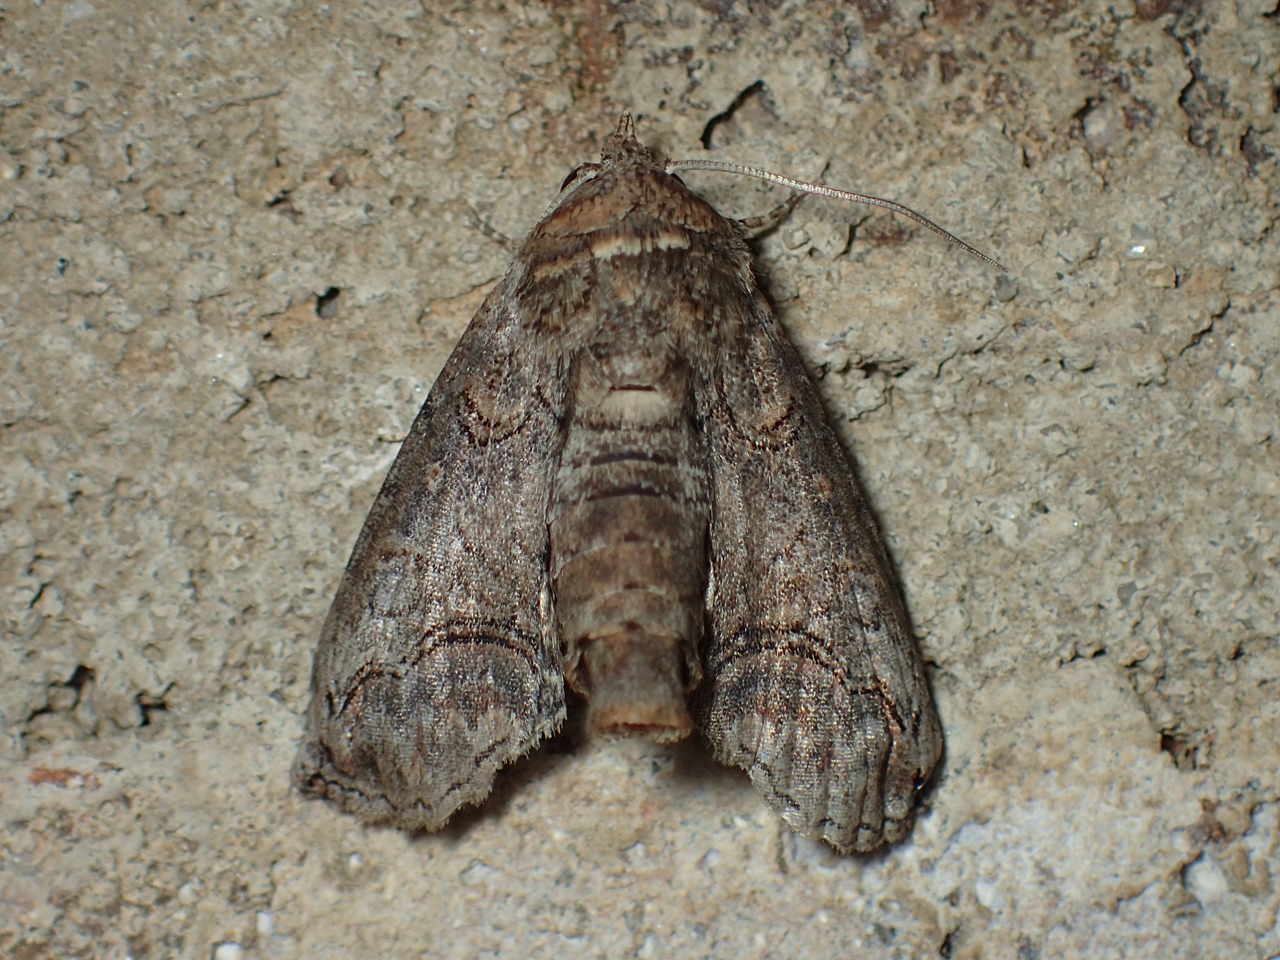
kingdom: Animalia
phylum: Arthropoda
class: Insecta
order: Lepidoptera
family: Euteliidae
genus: Paectes
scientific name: Paectes abrostoloides
